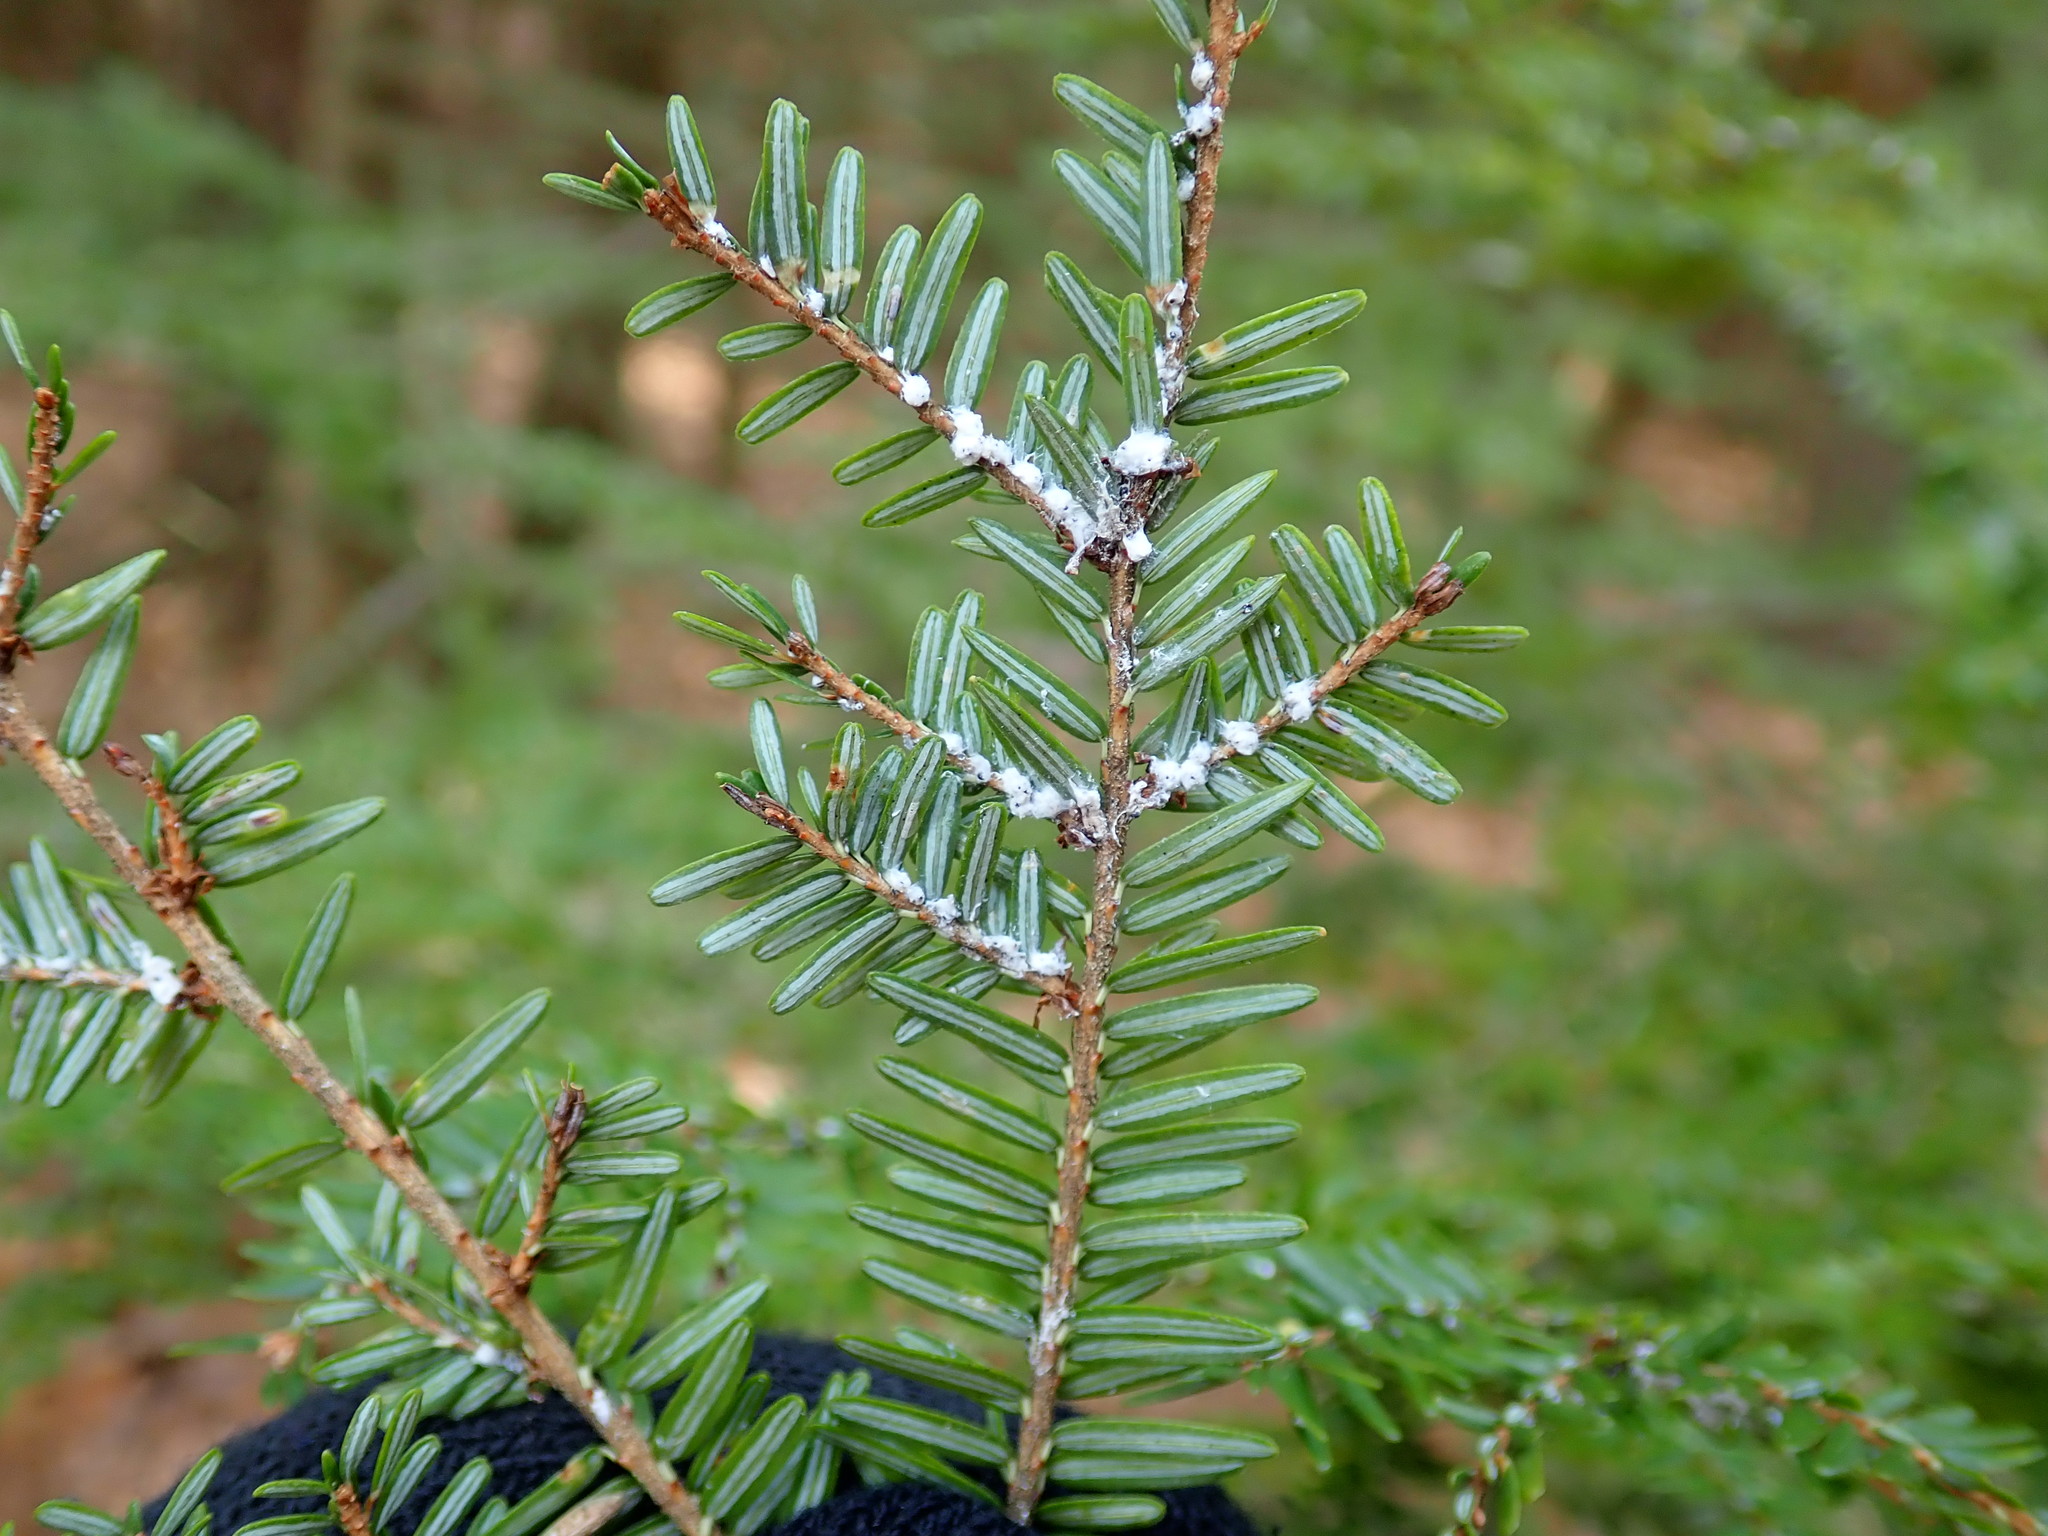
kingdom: Animalia
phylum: Arthropoda
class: Insecta
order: Hemiptera
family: Adelgidae
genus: Adelges
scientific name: Adelges tsugae
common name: Hemlock woolly adelgid
